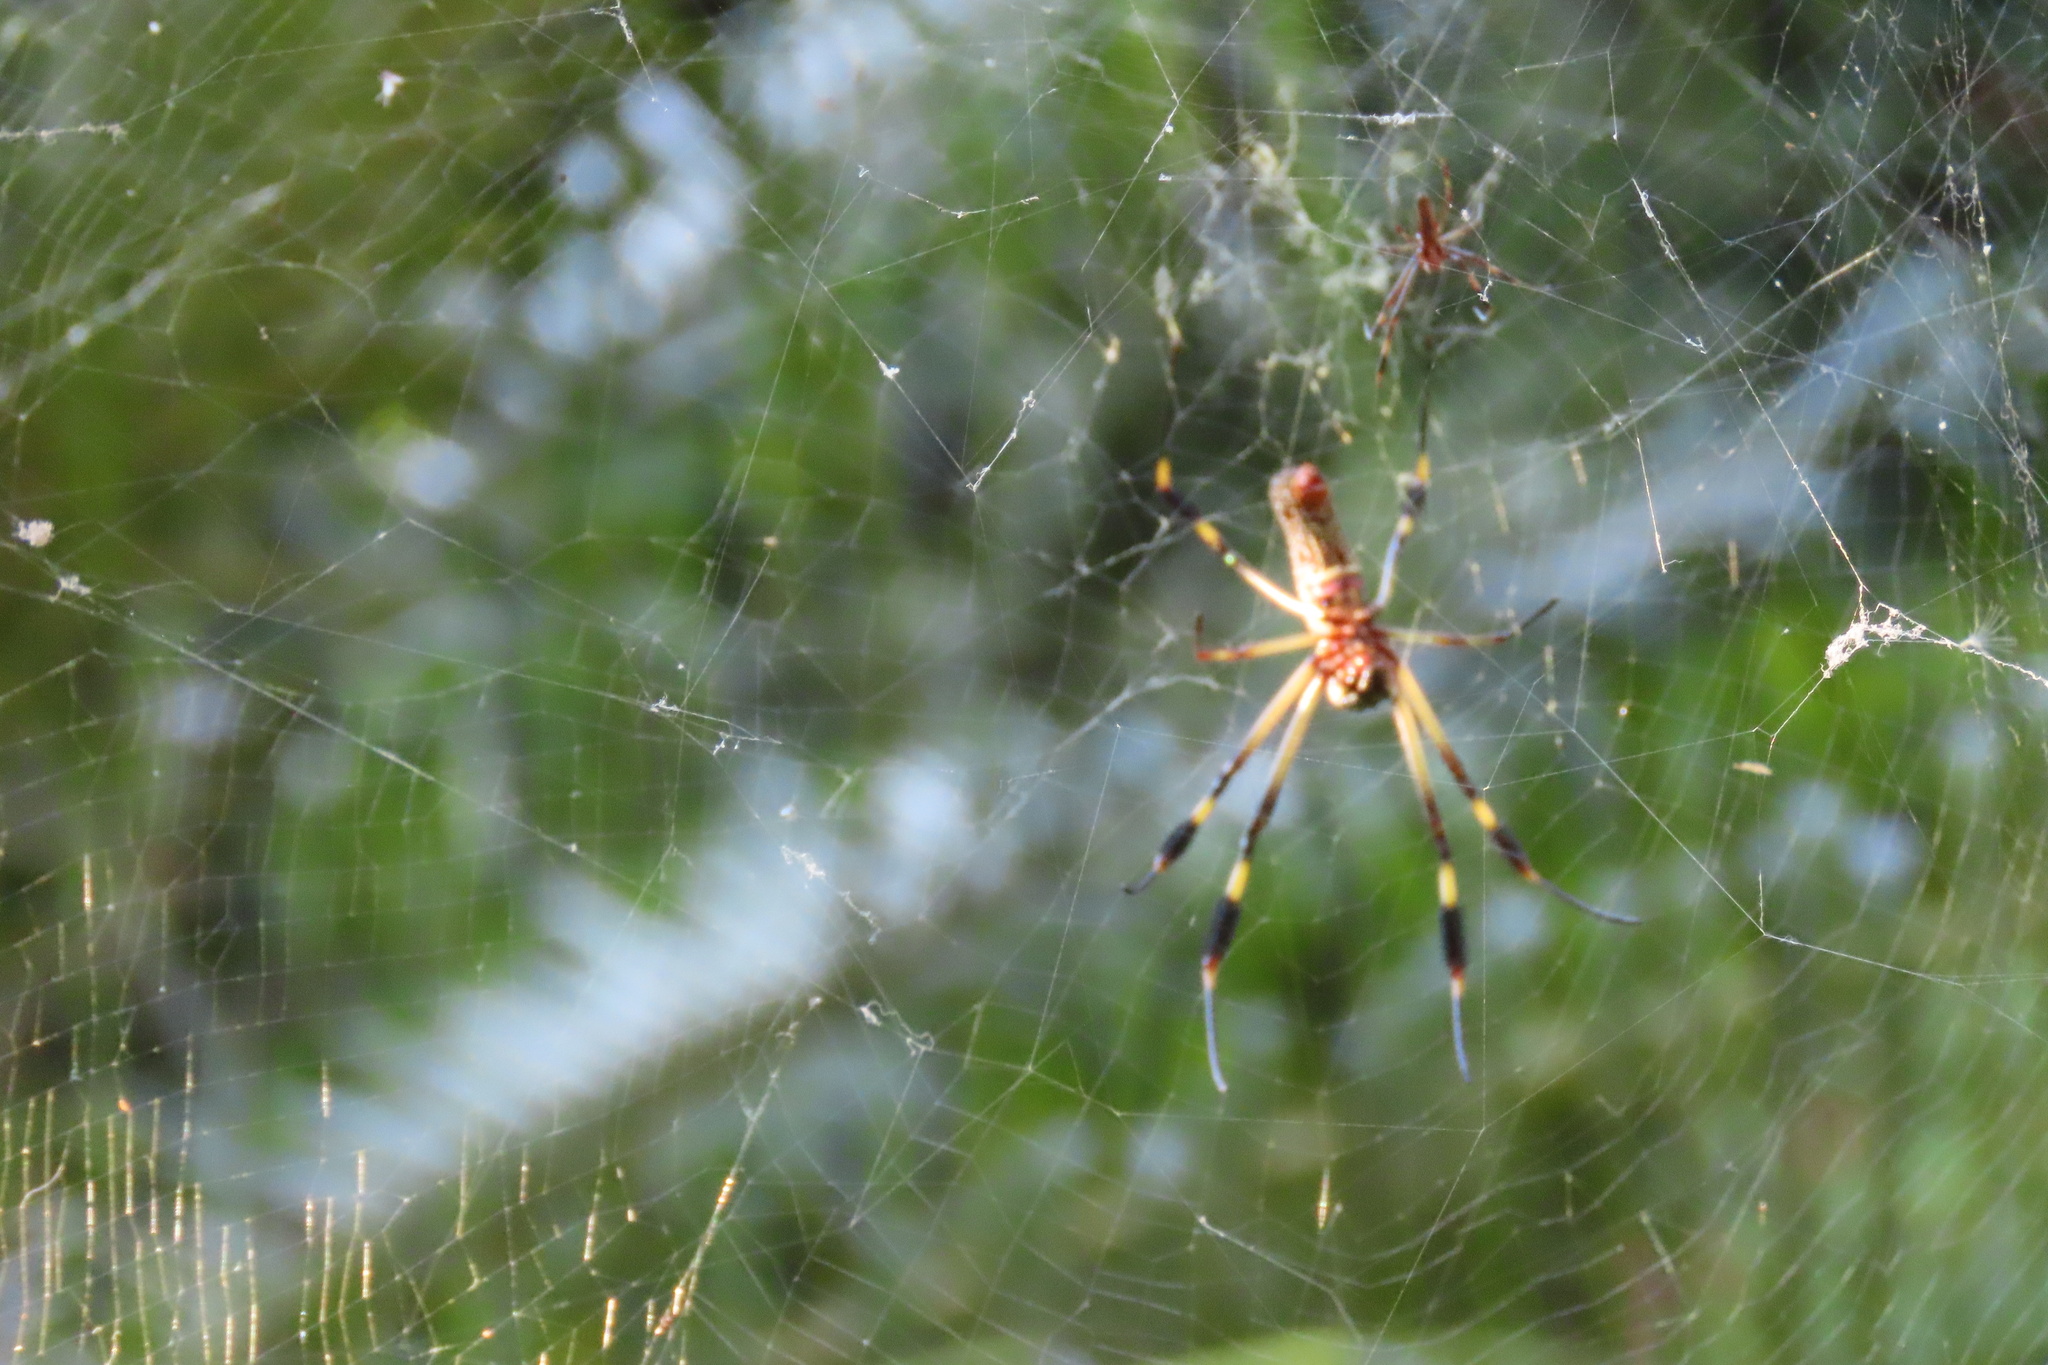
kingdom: Animalia
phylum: Arthropoda
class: Arachnida
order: Araneae
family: Araneidae
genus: Trichonephila
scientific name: Trichonephila clavipes
